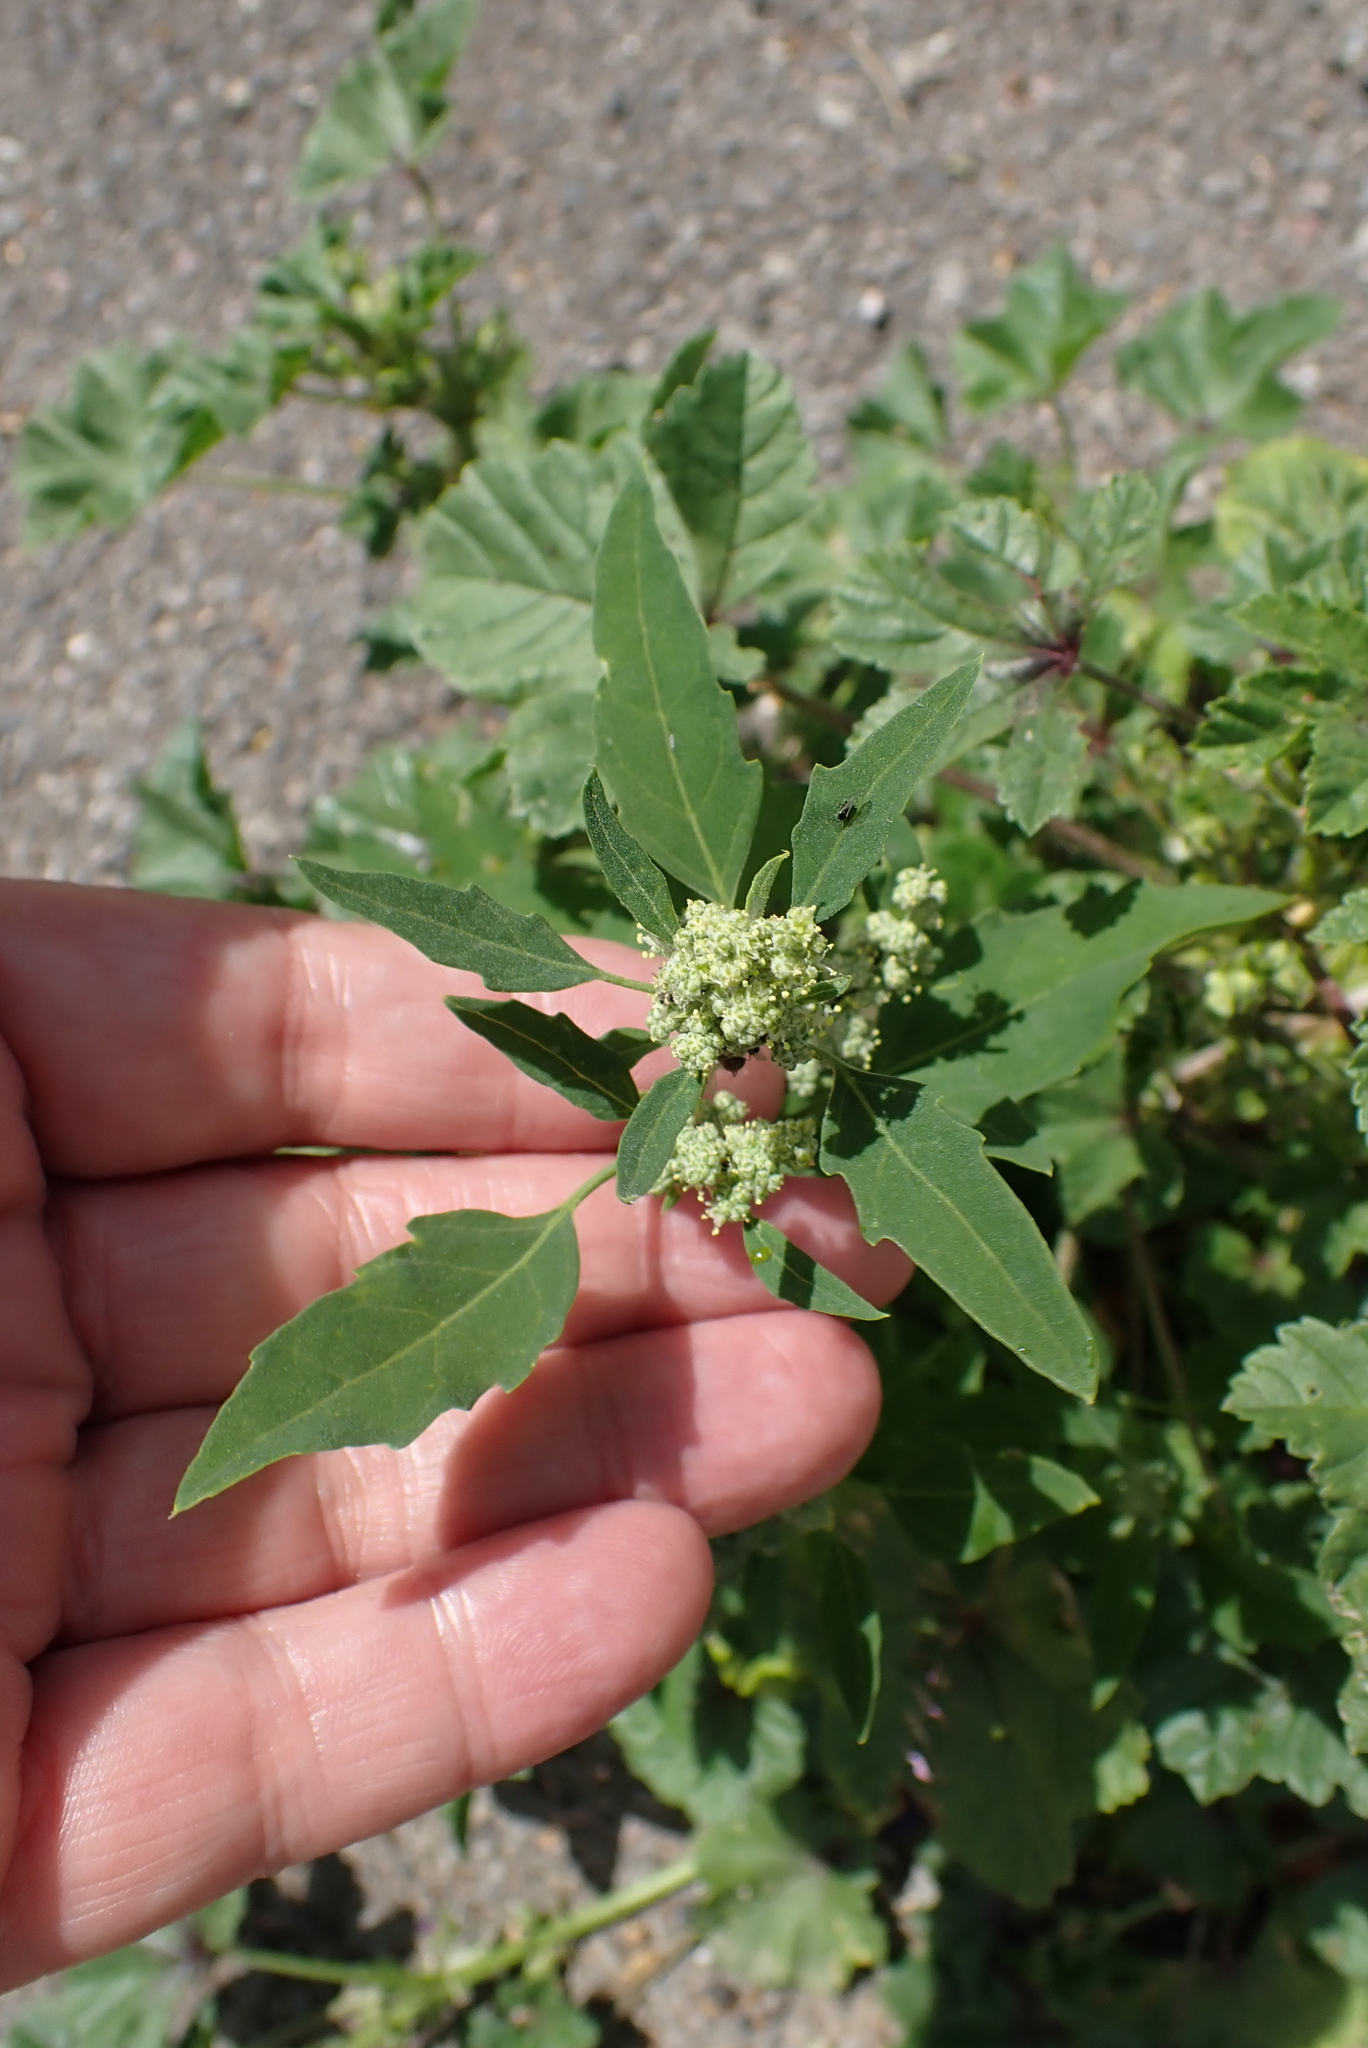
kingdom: Plantae
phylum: Tracheophyta
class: Magnoliopsida
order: Caryophyllales
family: Amaranthaceae
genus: Chenopodium
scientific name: Chenopodium album
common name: Fat-hen
